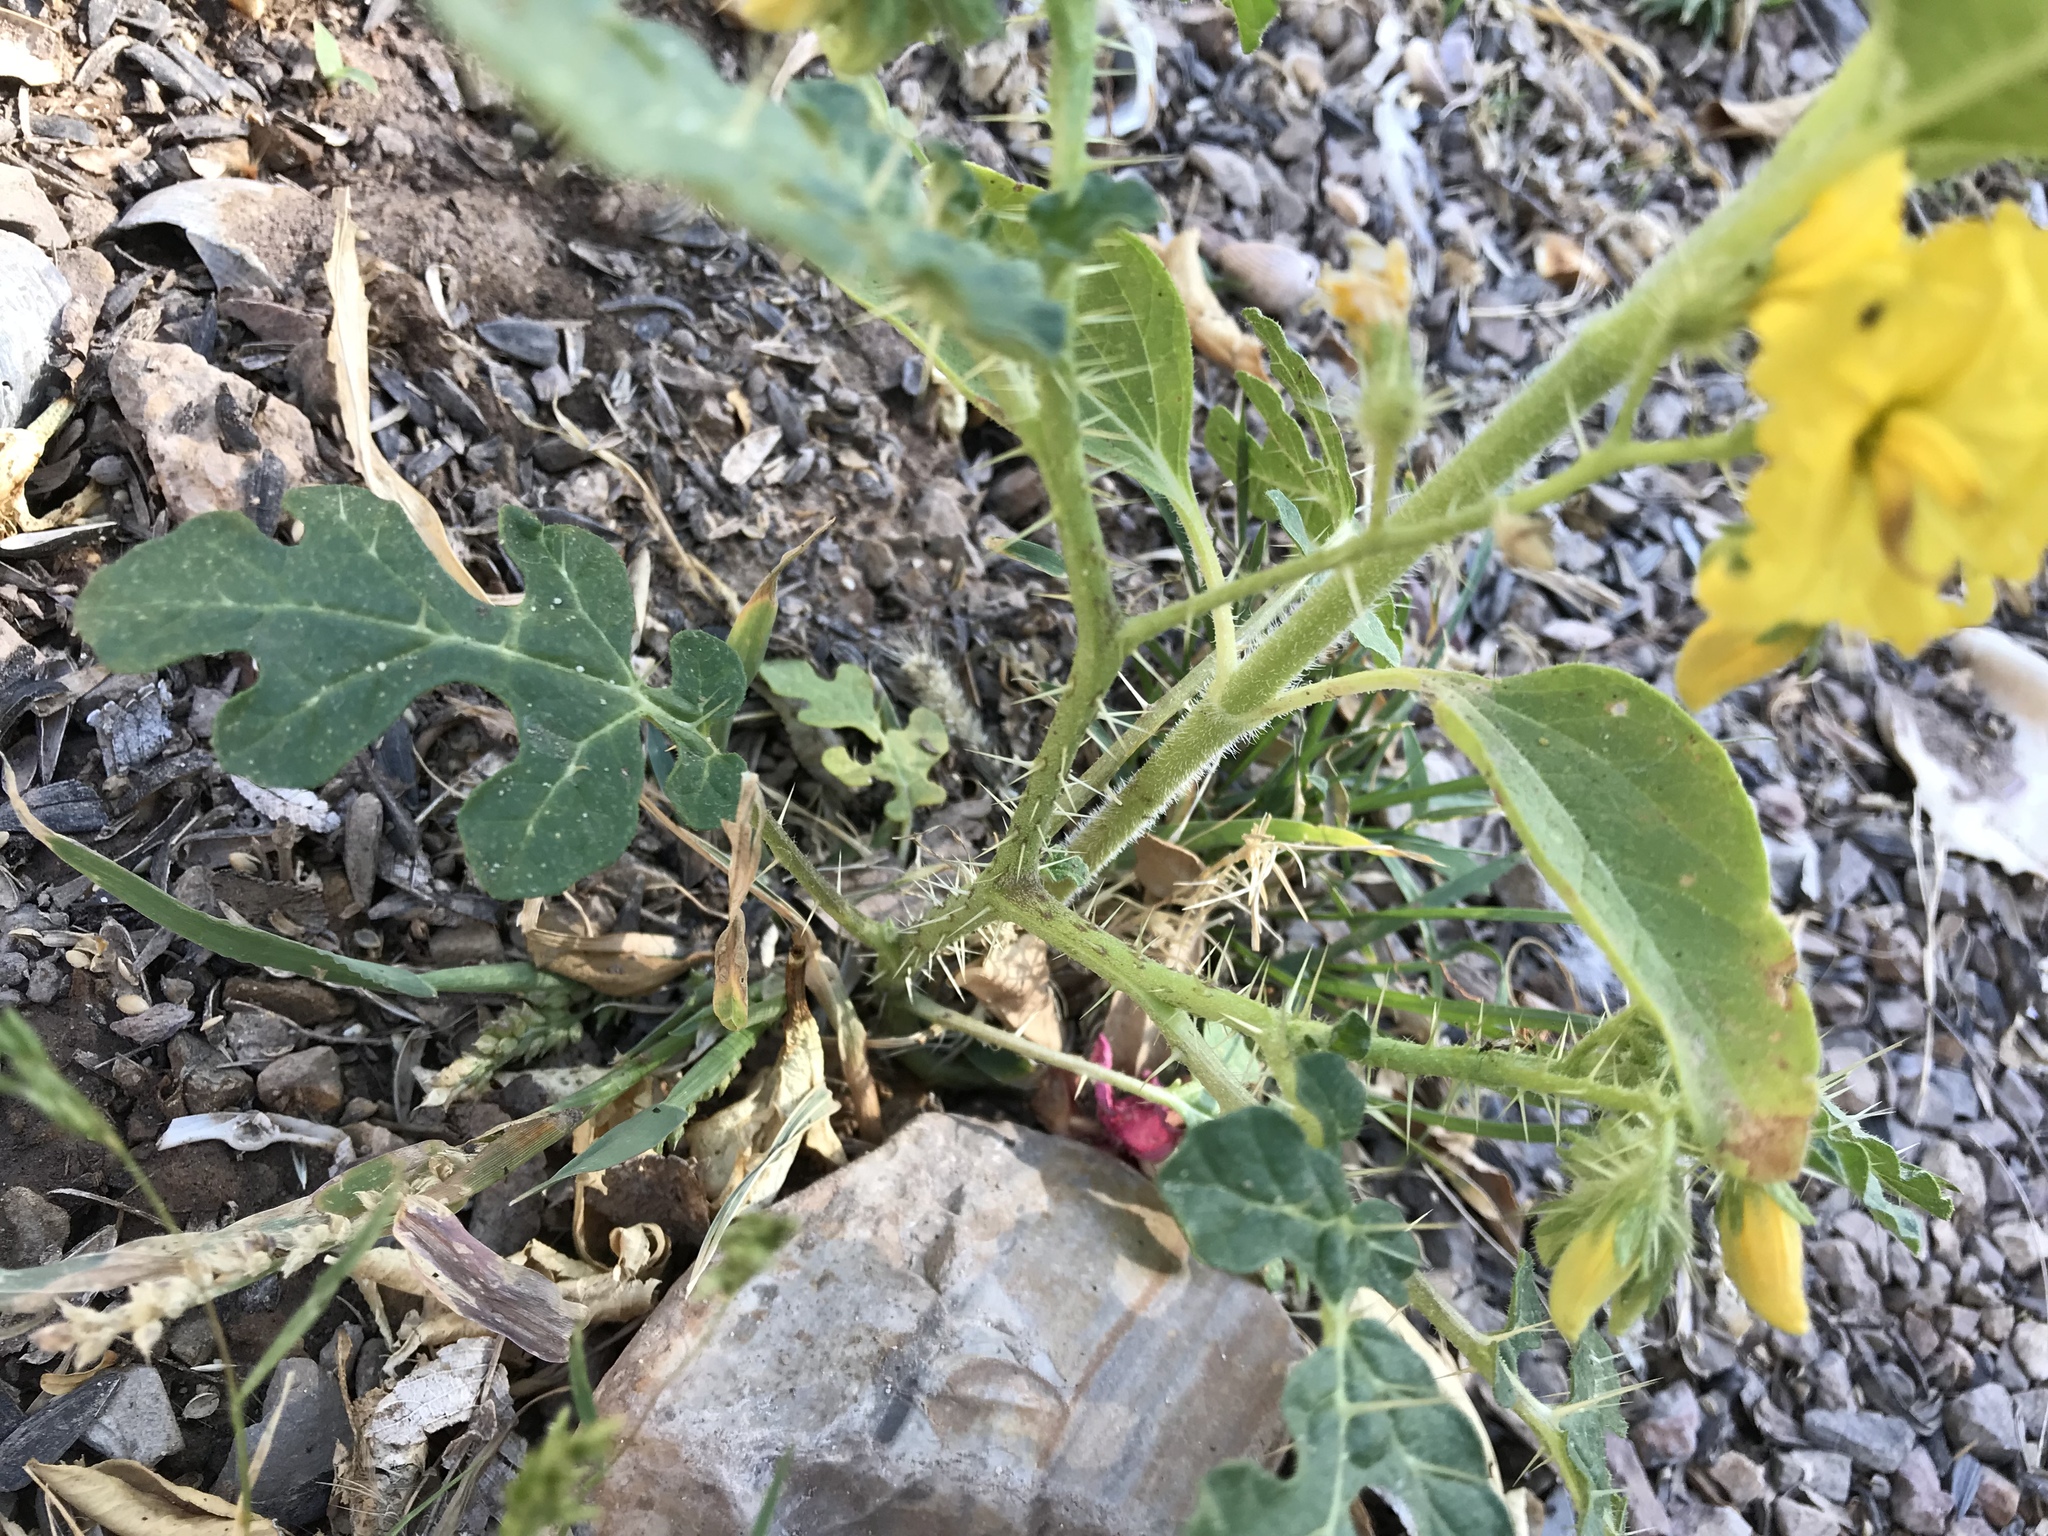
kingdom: Plantae
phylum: Tracheophyta
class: Magnoliopsida
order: Solanales
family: Solanaceae
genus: Solanum
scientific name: Solanum angustifolium
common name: Buffalobur nightshade
